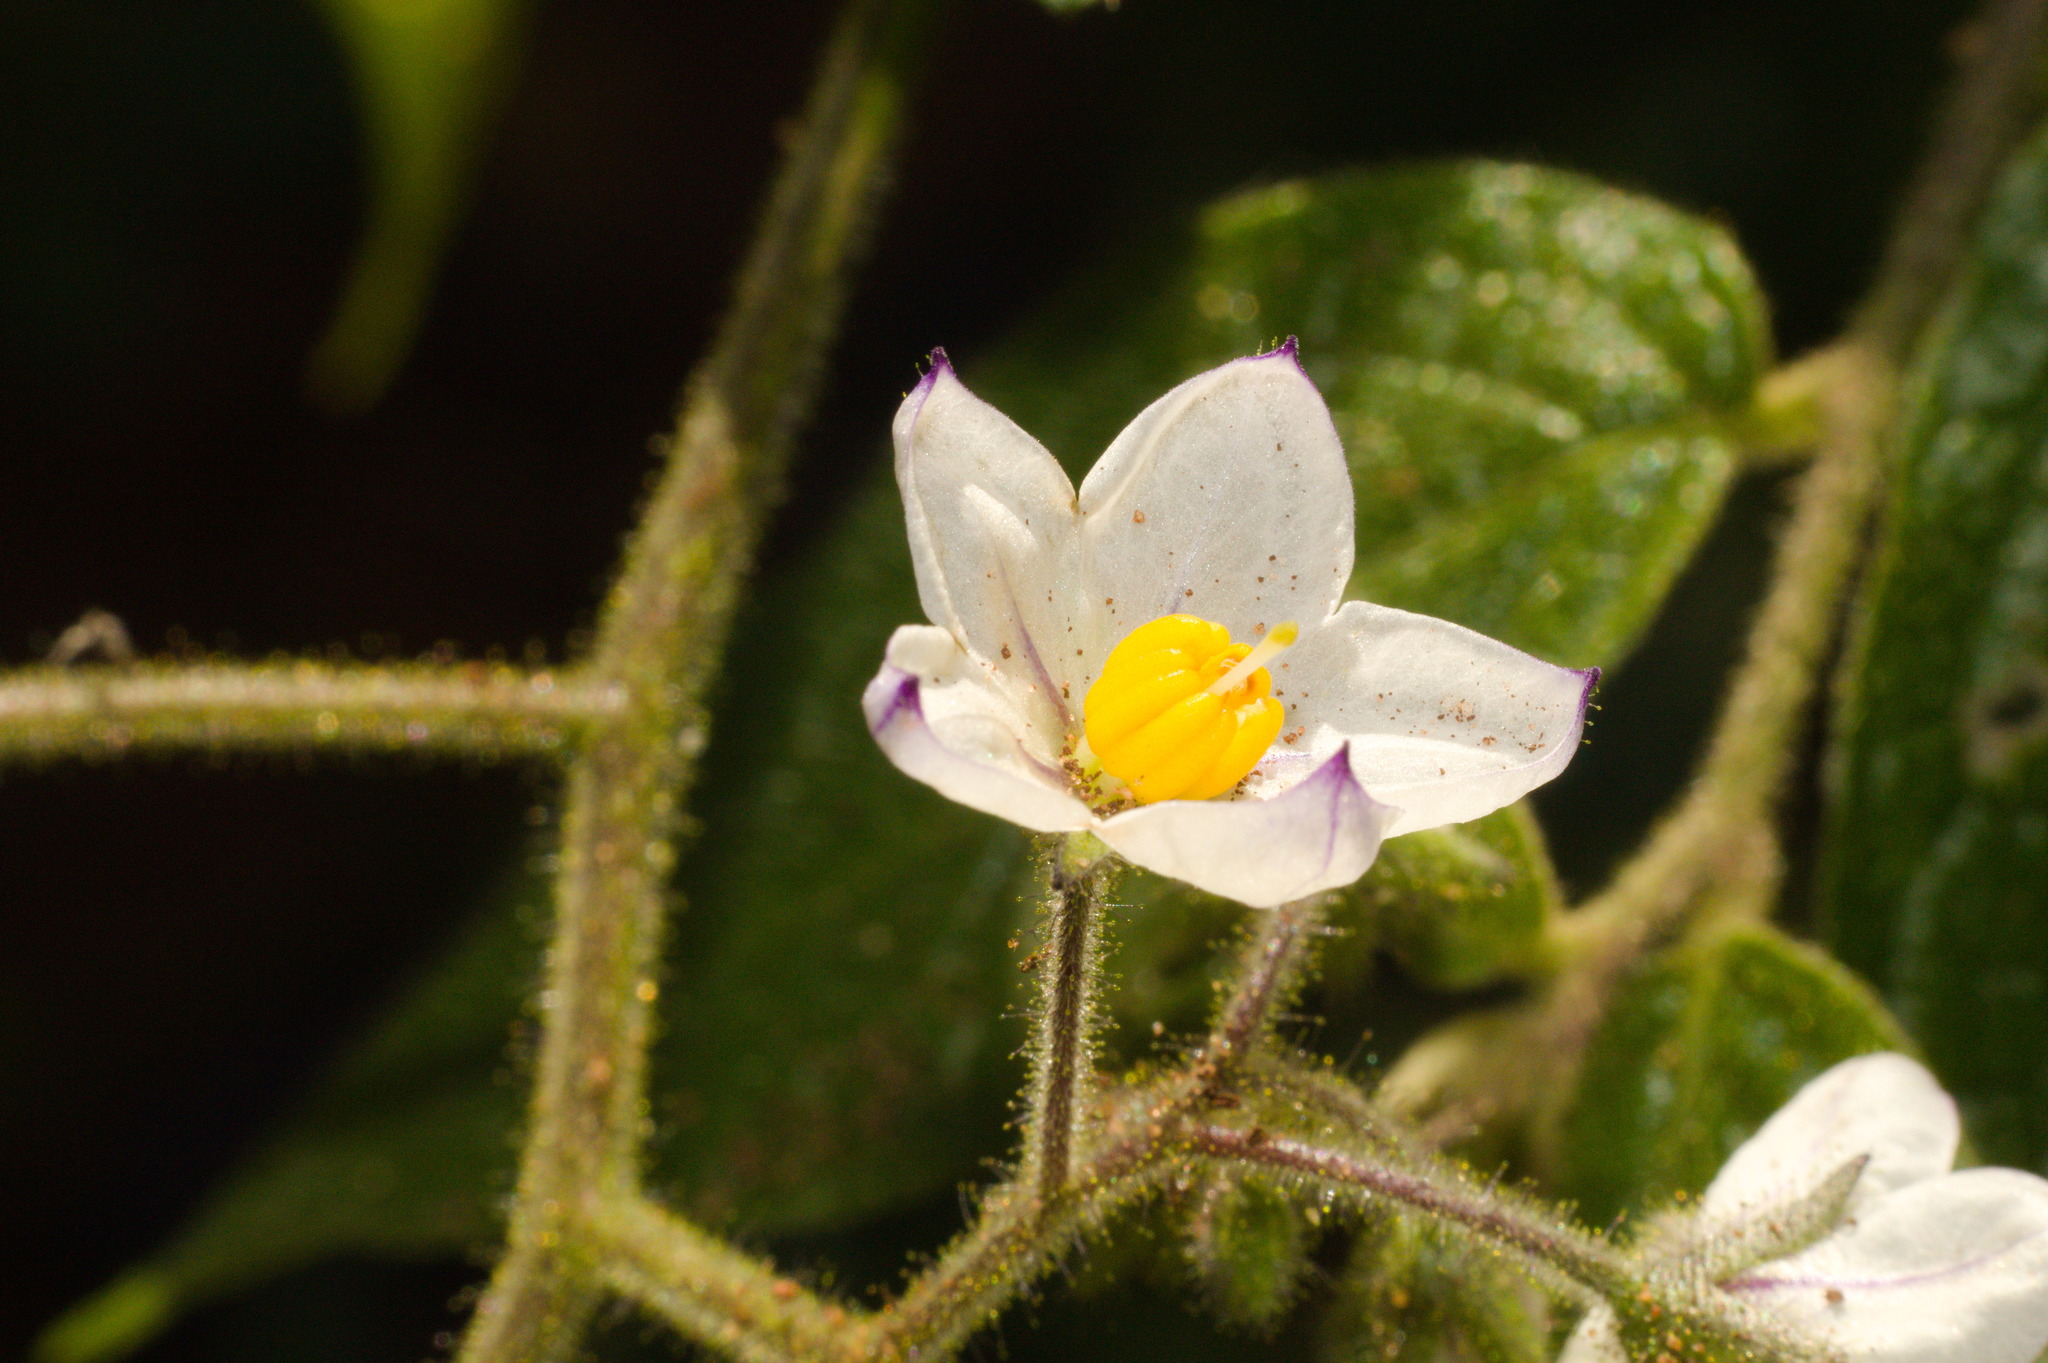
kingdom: Plantae
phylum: Tracheophyta
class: Magnoliopsida
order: Solanales
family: Solanaceae
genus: Solanum
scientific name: Solanum concinnum
